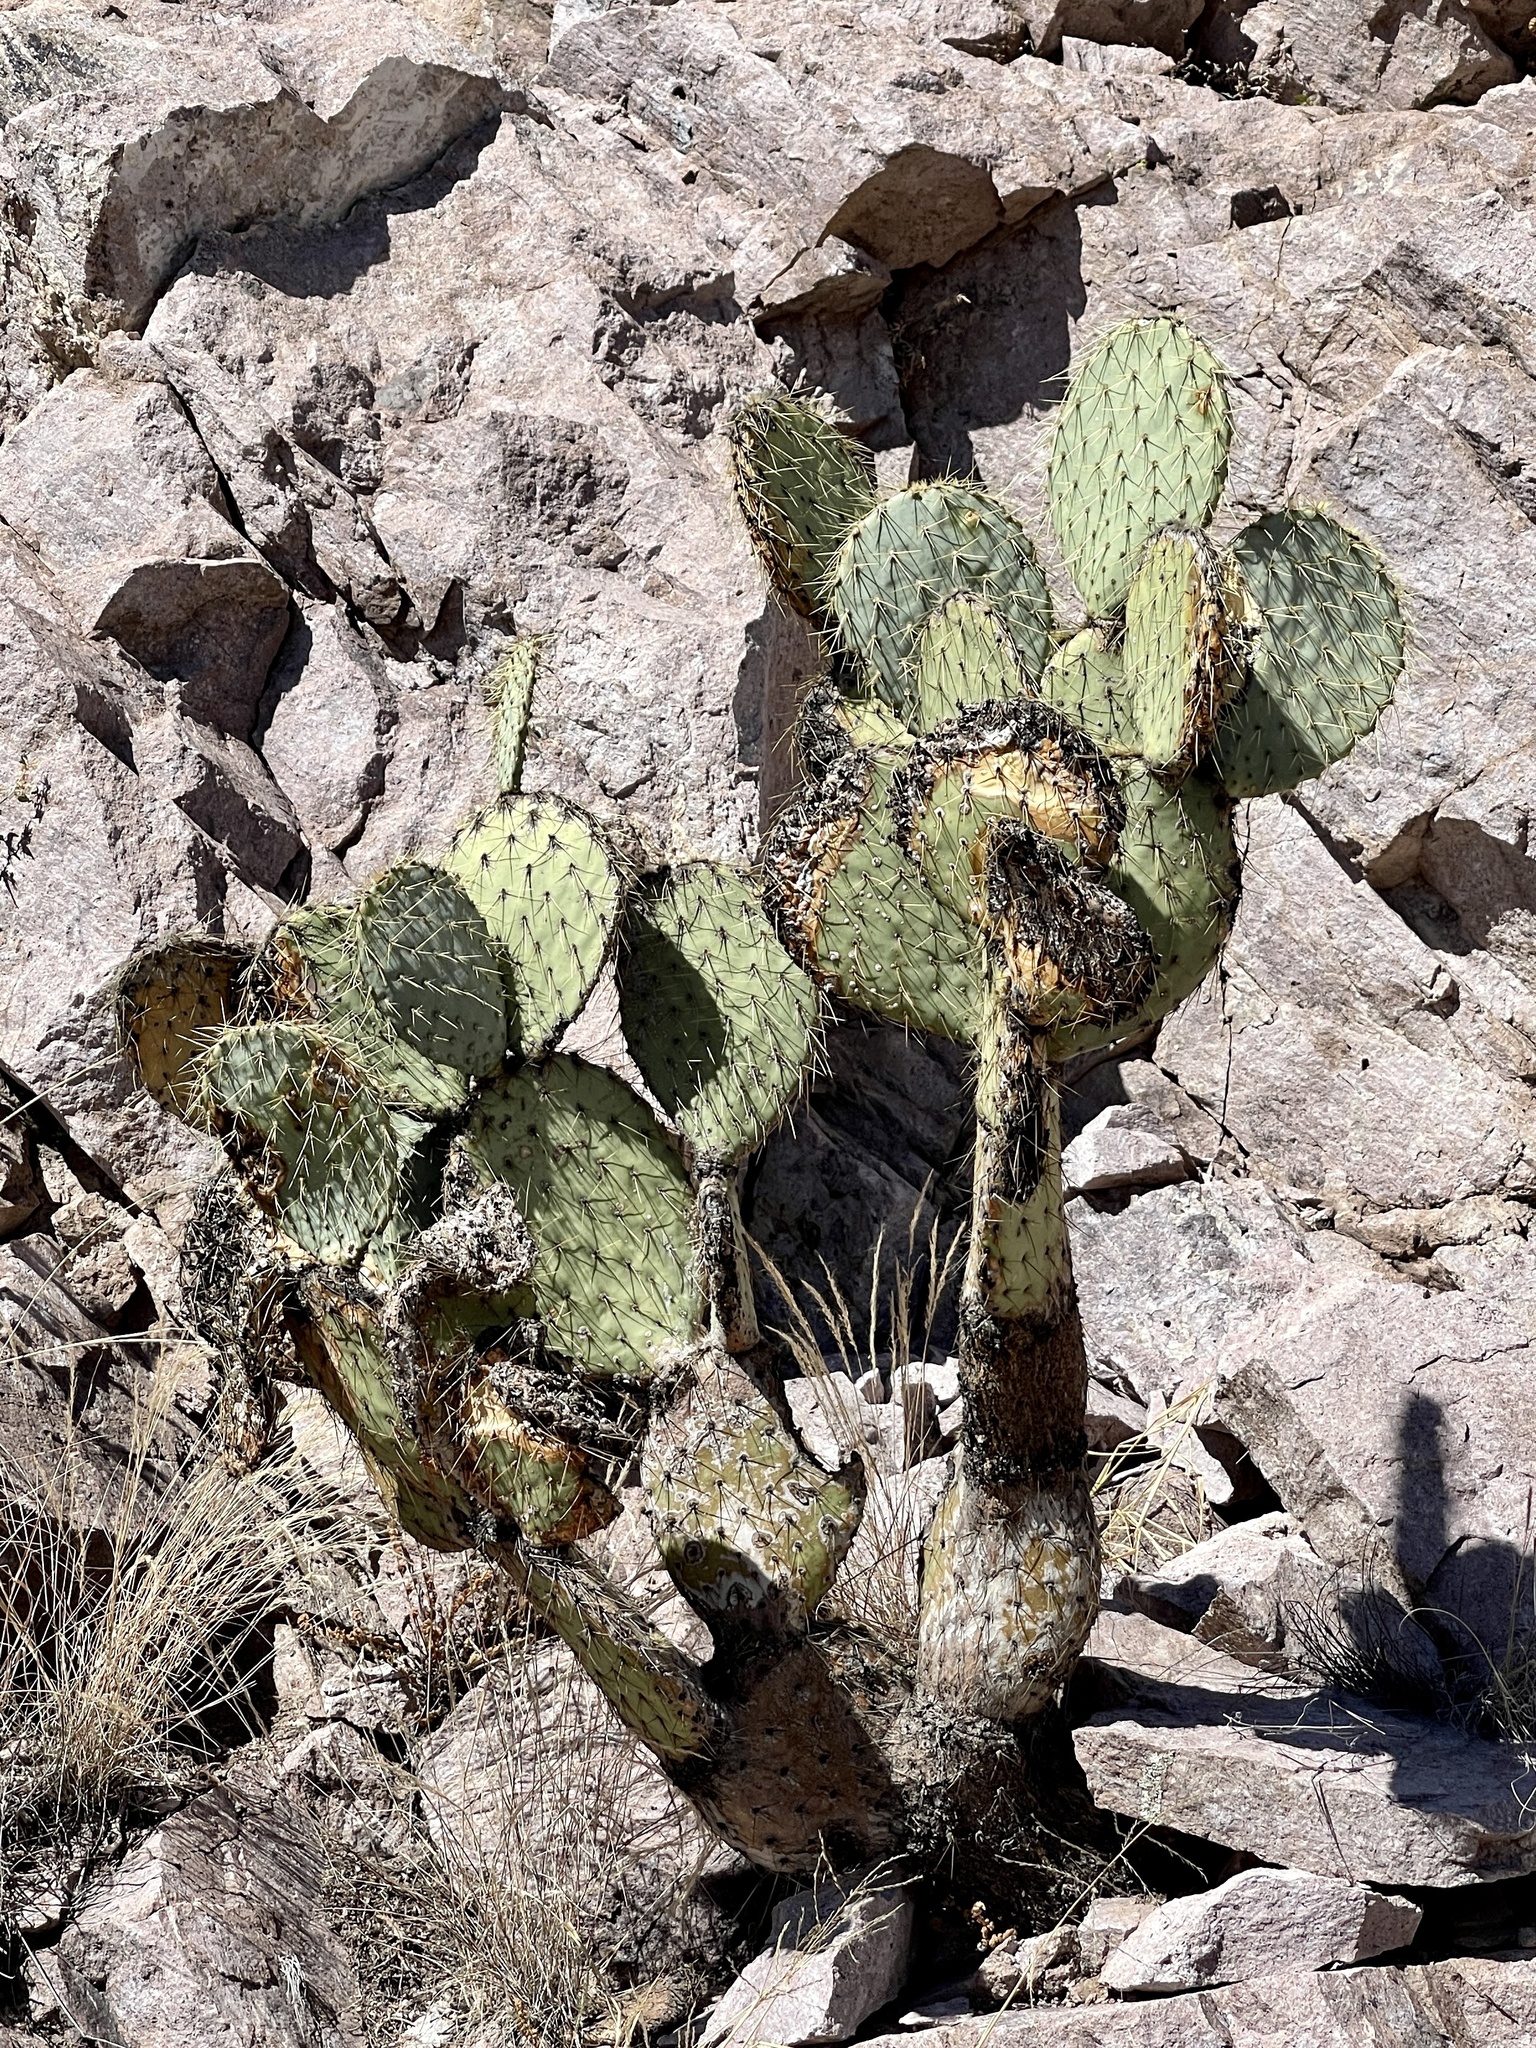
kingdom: Plantae
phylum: Tracheophyta
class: Magnoliopsida
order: Caryophyllales
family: Cactaceae
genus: Opuntia
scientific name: Opuntia chlorotica
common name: Dollar-joint prickly-pear
